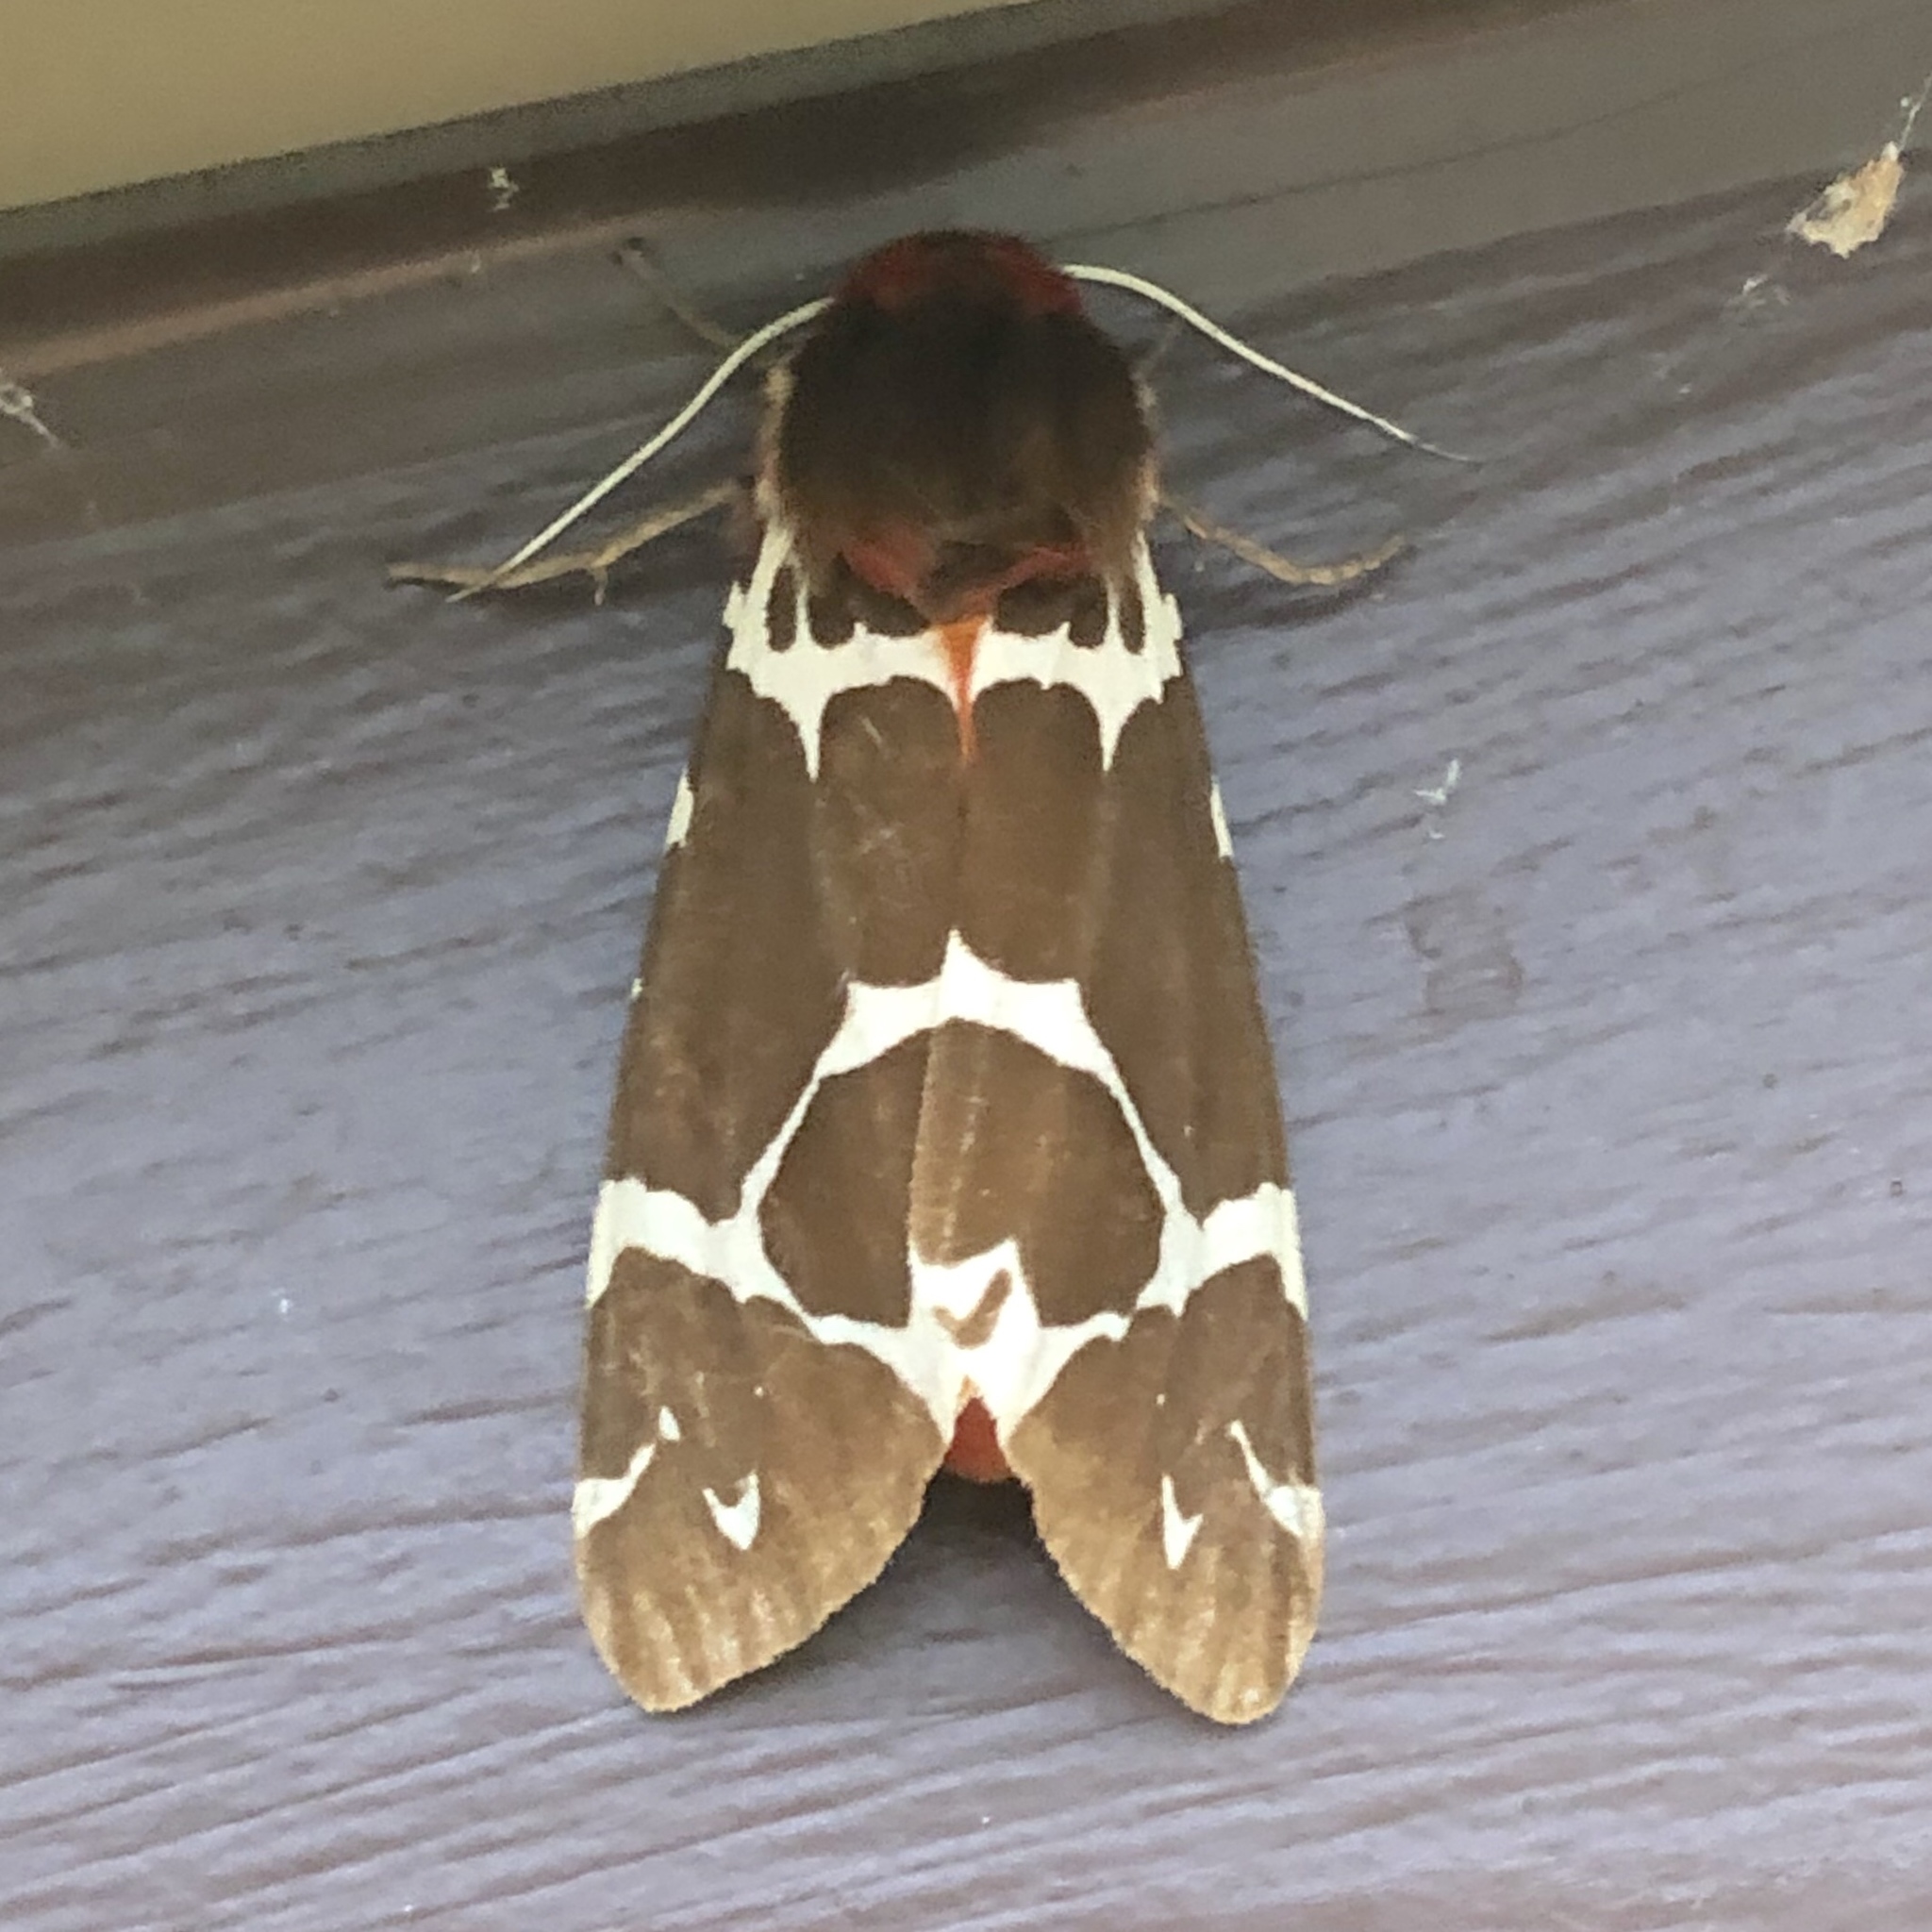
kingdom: Animalia
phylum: Arthropoda
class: Insecta
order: Lepidoptera
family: Erebidae
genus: Arctia
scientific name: Arctia caja
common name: Garden tiger
